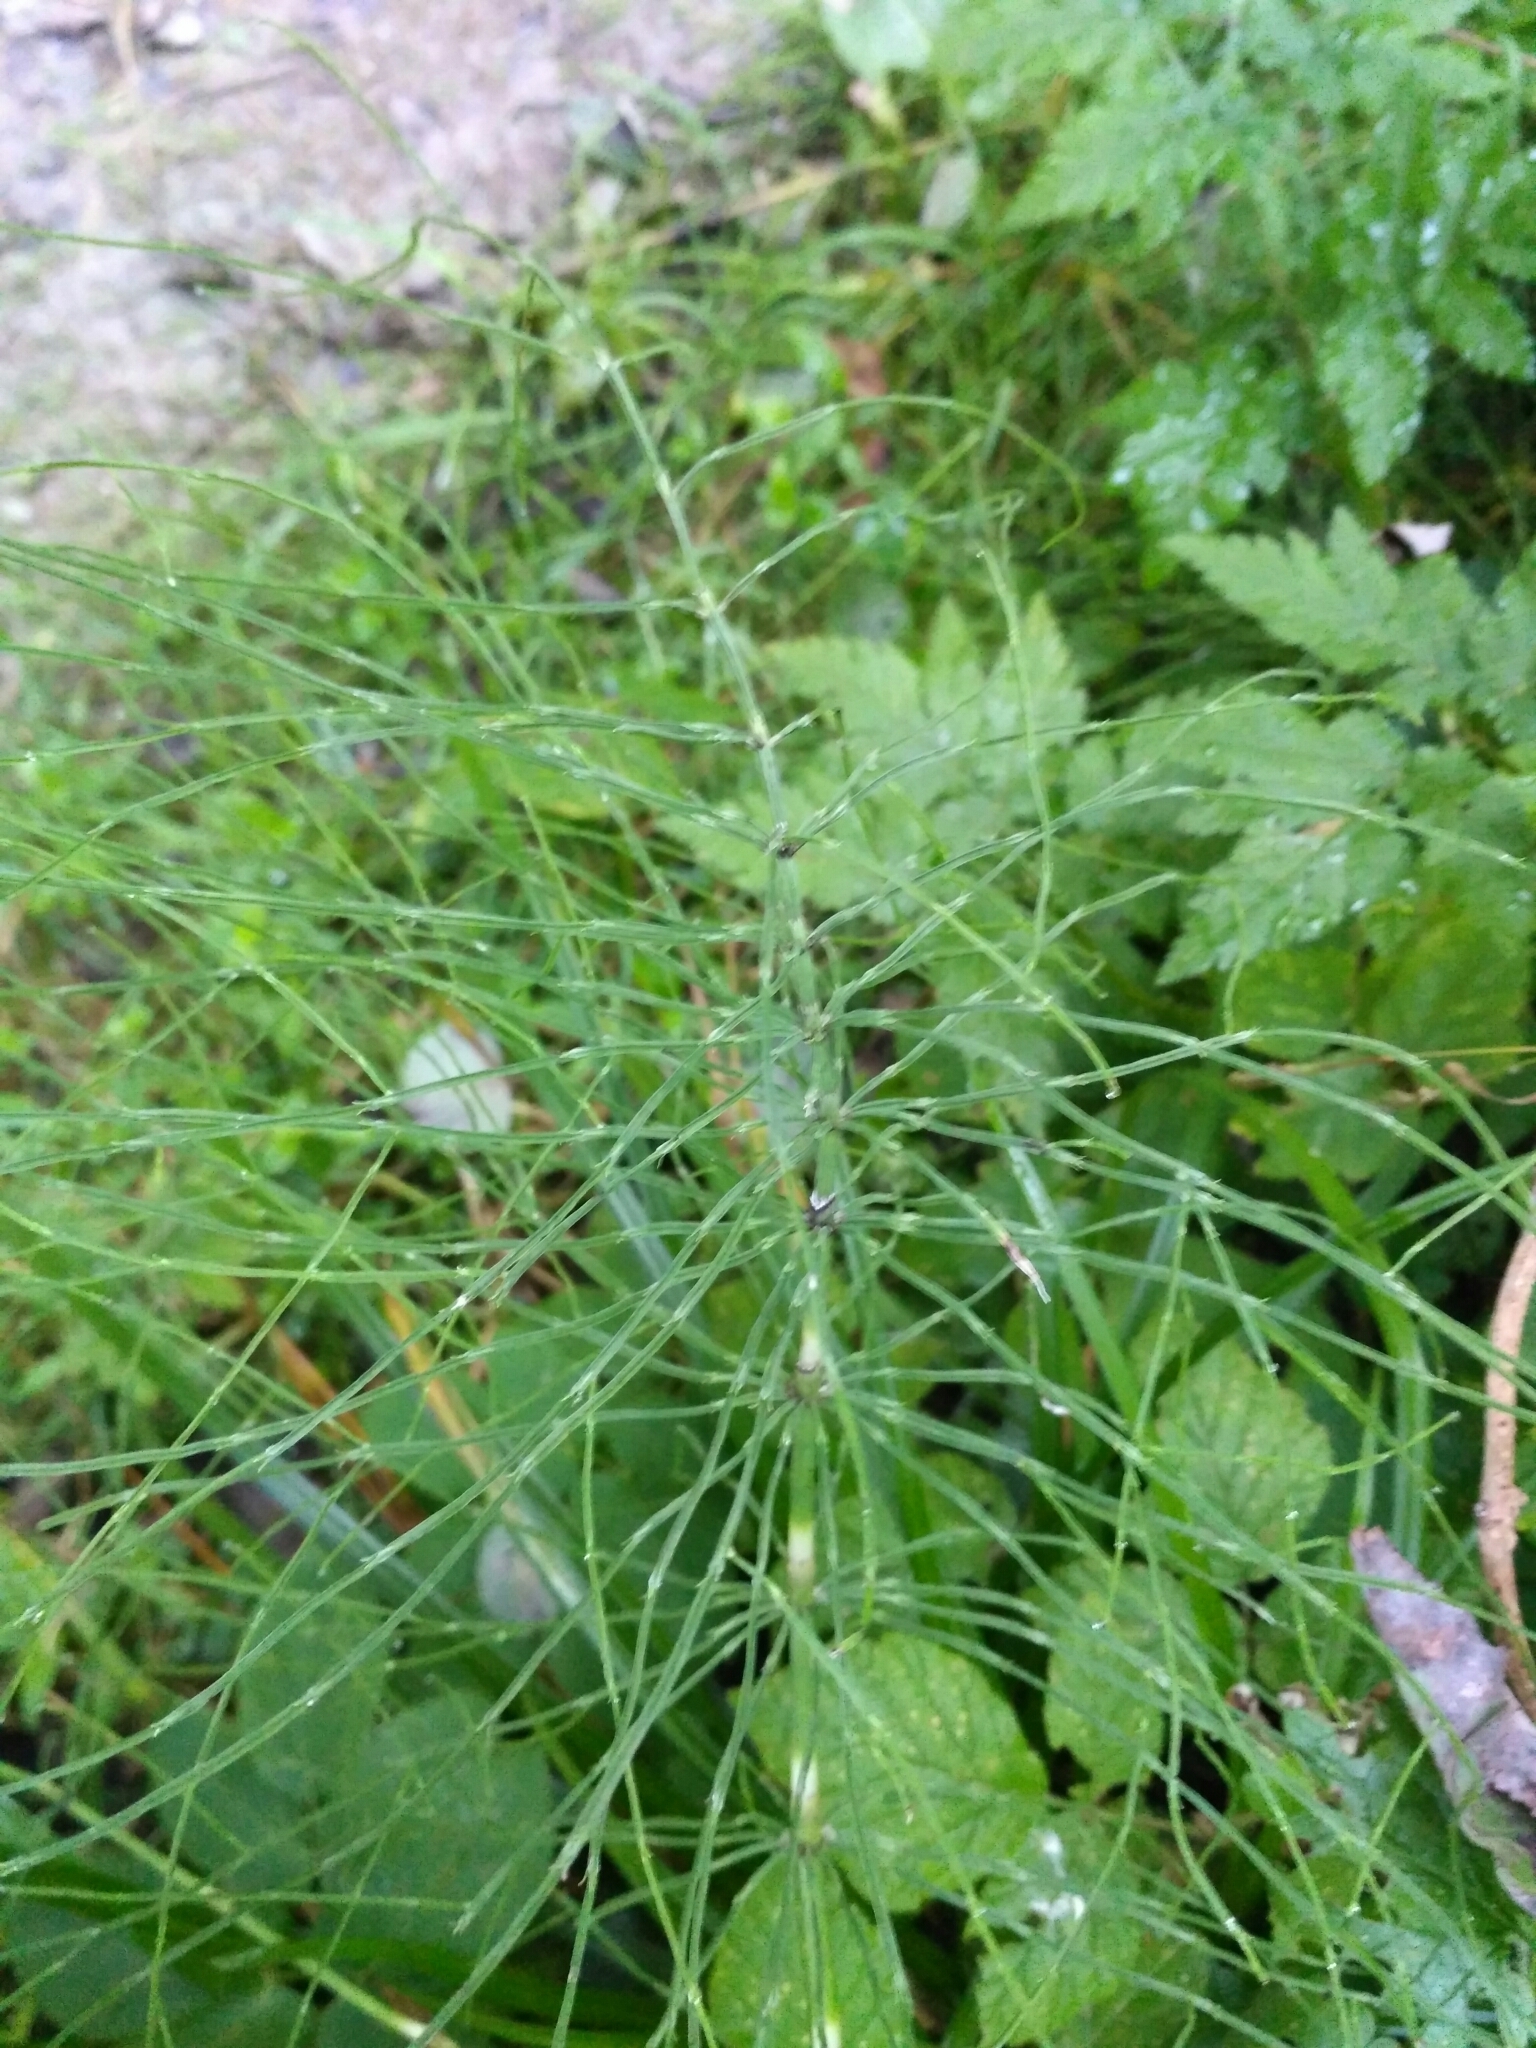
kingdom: Plantae
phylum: Tracheophyta
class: Polypodiopsida
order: Equisetales
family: Equisetaceae
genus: Equisetum
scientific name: Equisetum arvense
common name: Field horsetail
